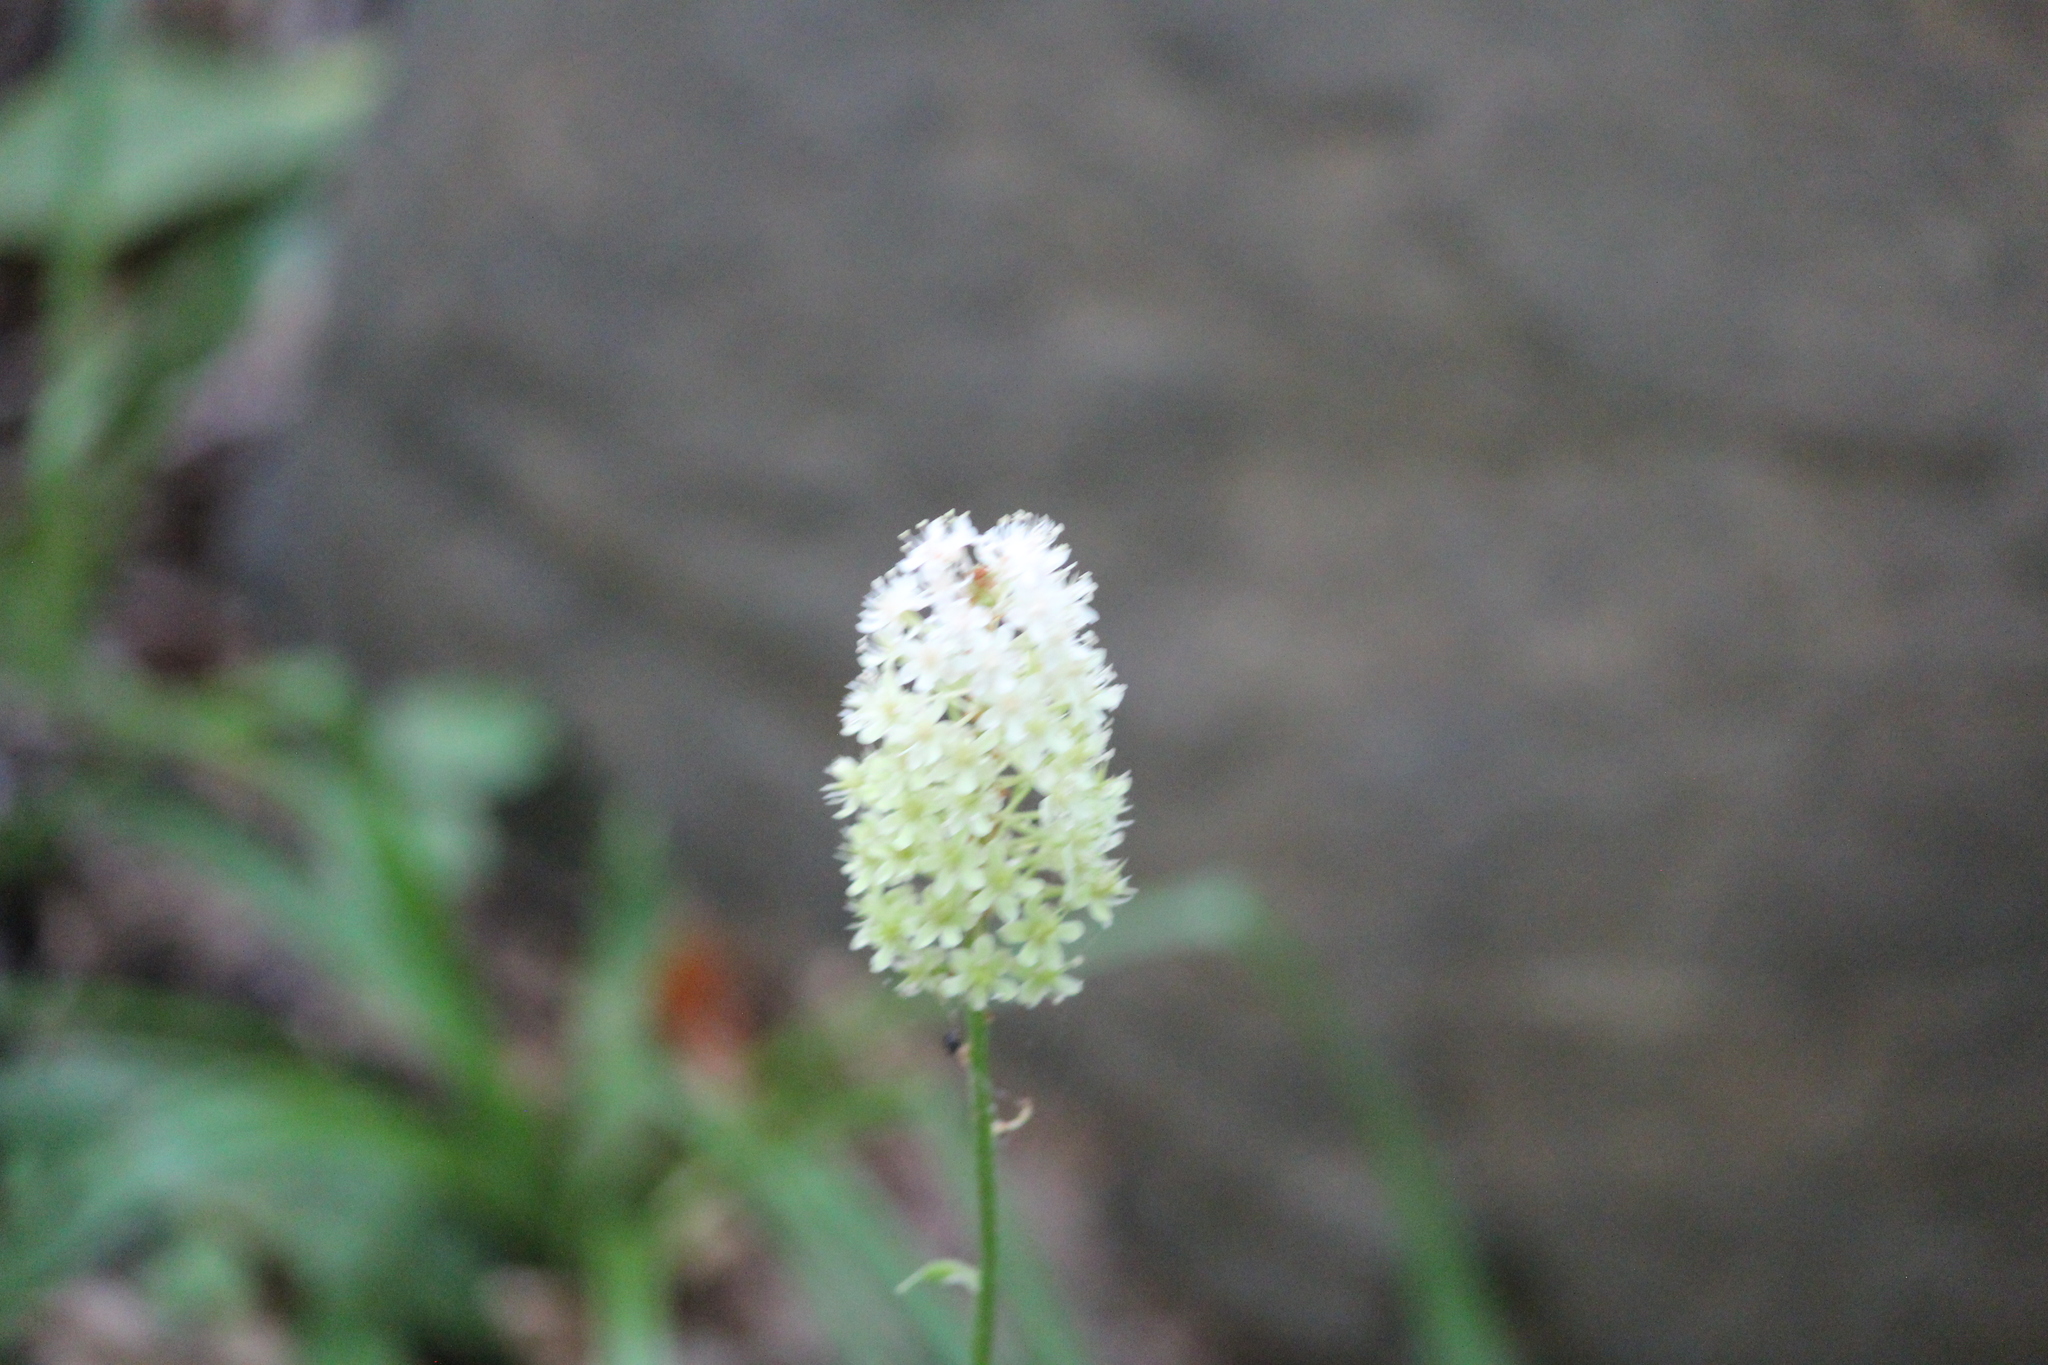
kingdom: Plantae
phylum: Tracheophyta
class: Liliopsida
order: Liliales
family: Melanthiaceae
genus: Amianthium
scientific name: Amianthium muscitoxicum
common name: Fly-poison
